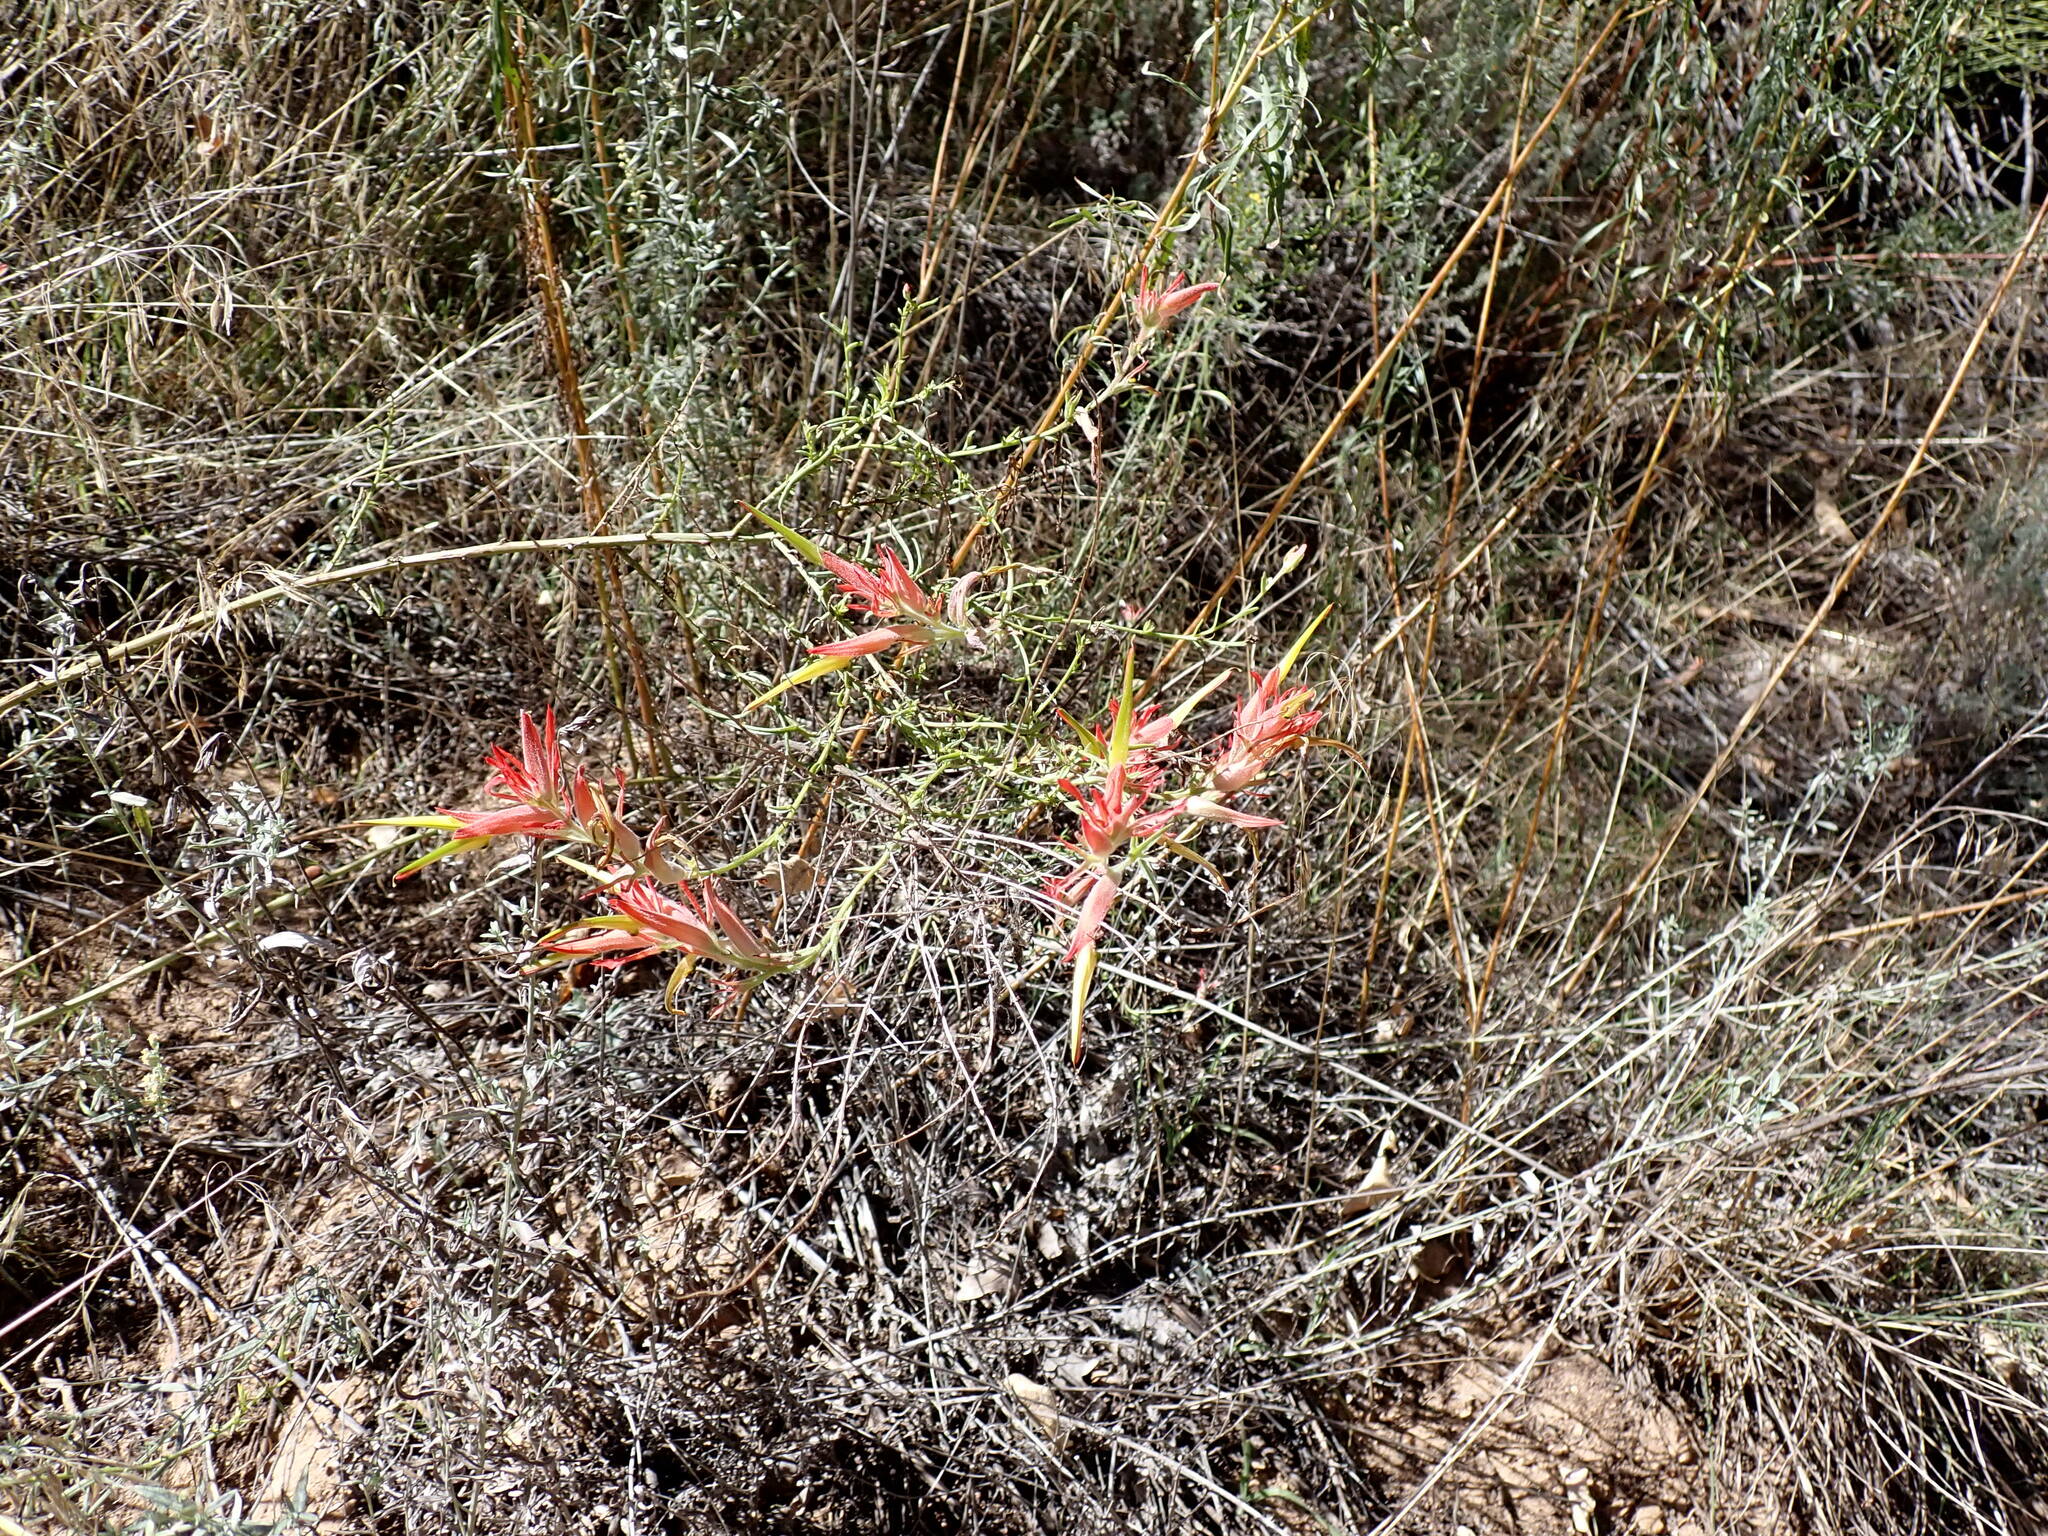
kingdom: Plantae
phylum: Tracheophyta
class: Magnoliopsida
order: Lamiales
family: Orobanchaceae
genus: Castilleja
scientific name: Castilleja linariifolia
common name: Wyoming paintbrush
